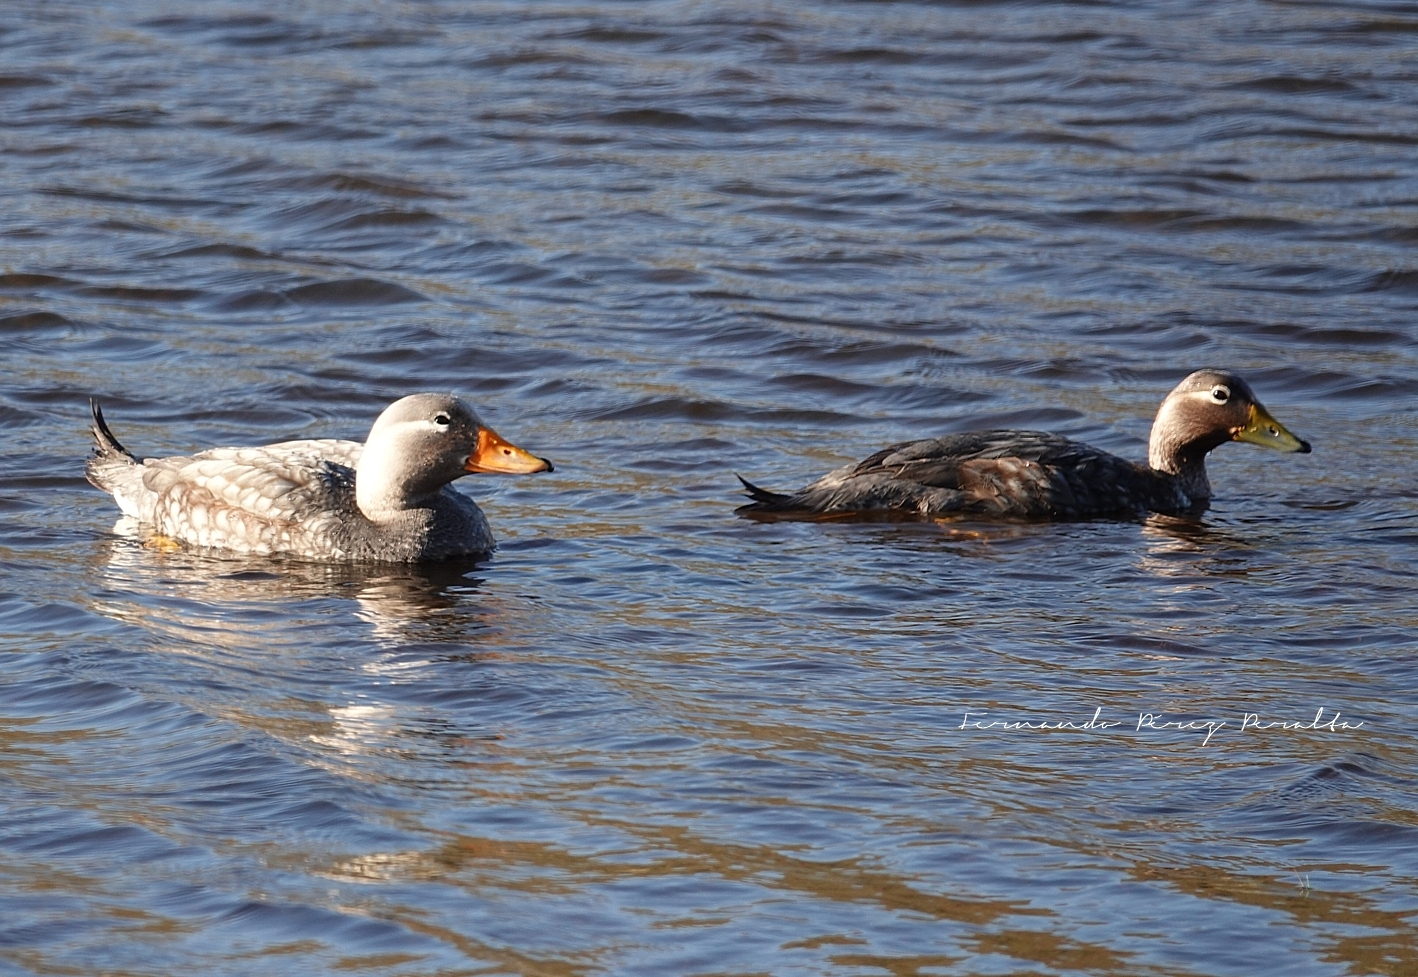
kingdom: Animalia
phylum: Chordata
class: Aves
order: Anseriformes
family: Anatidae
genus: Tachyeres
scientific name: Tachyeres patachonicus
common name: Flying steamer duck
